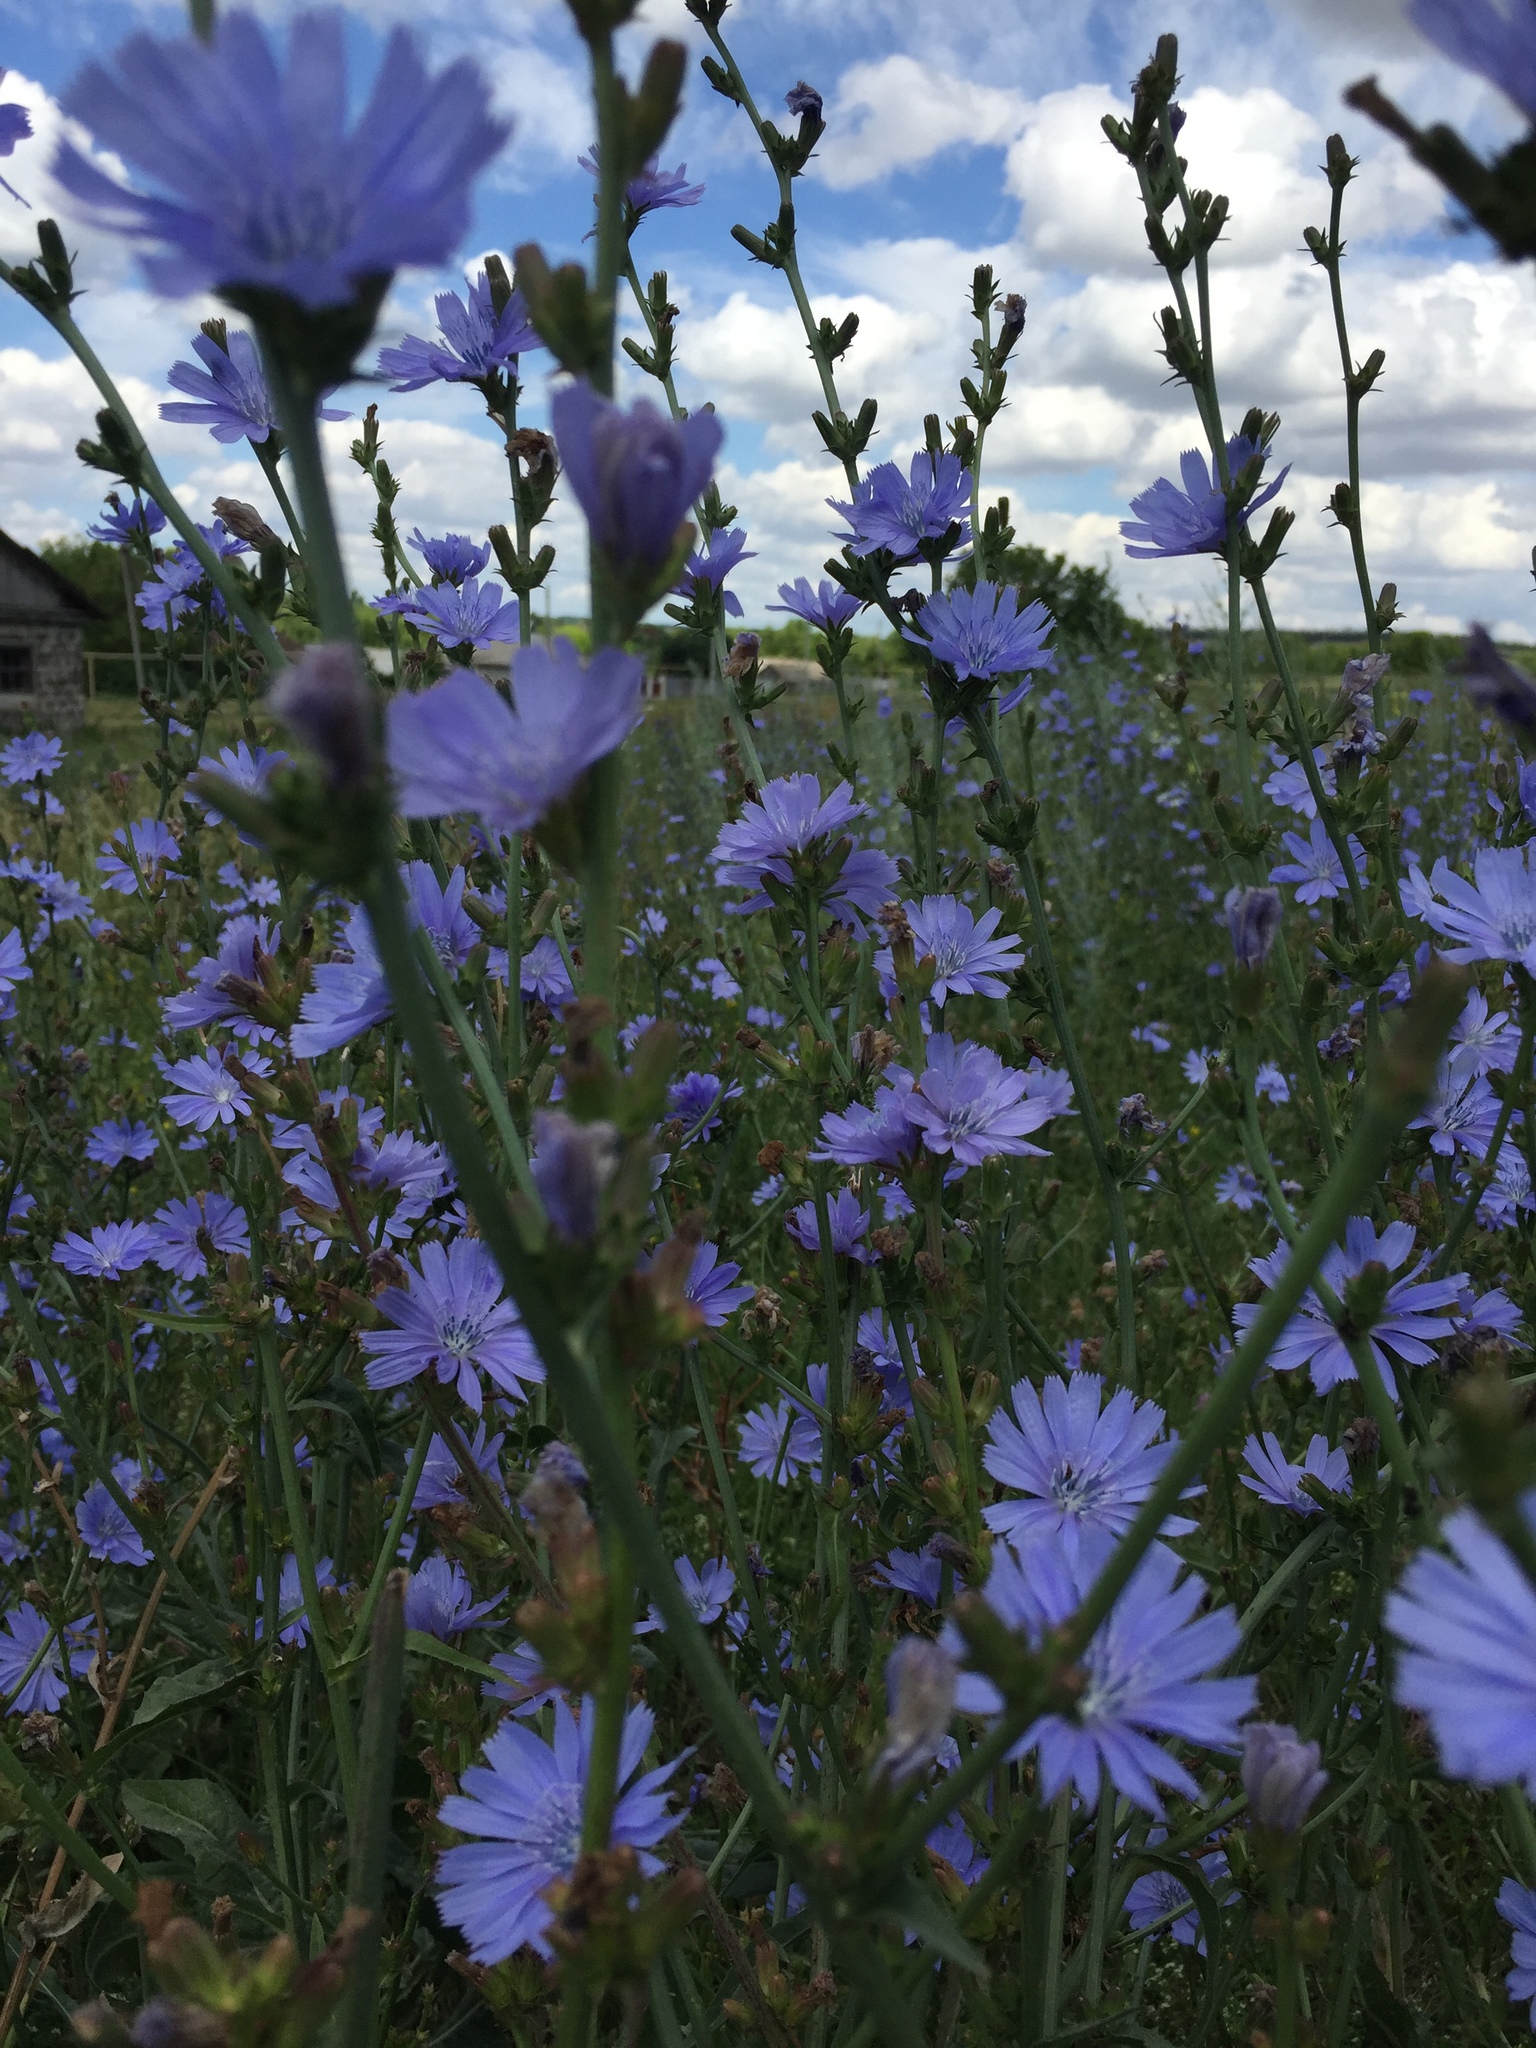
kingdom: Plantae
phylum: Tracheophyta
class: Magnoliopsida
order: Asterales
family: Asteraceae
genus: Cichorium
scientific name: Cichorium intybus
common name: Chicory
